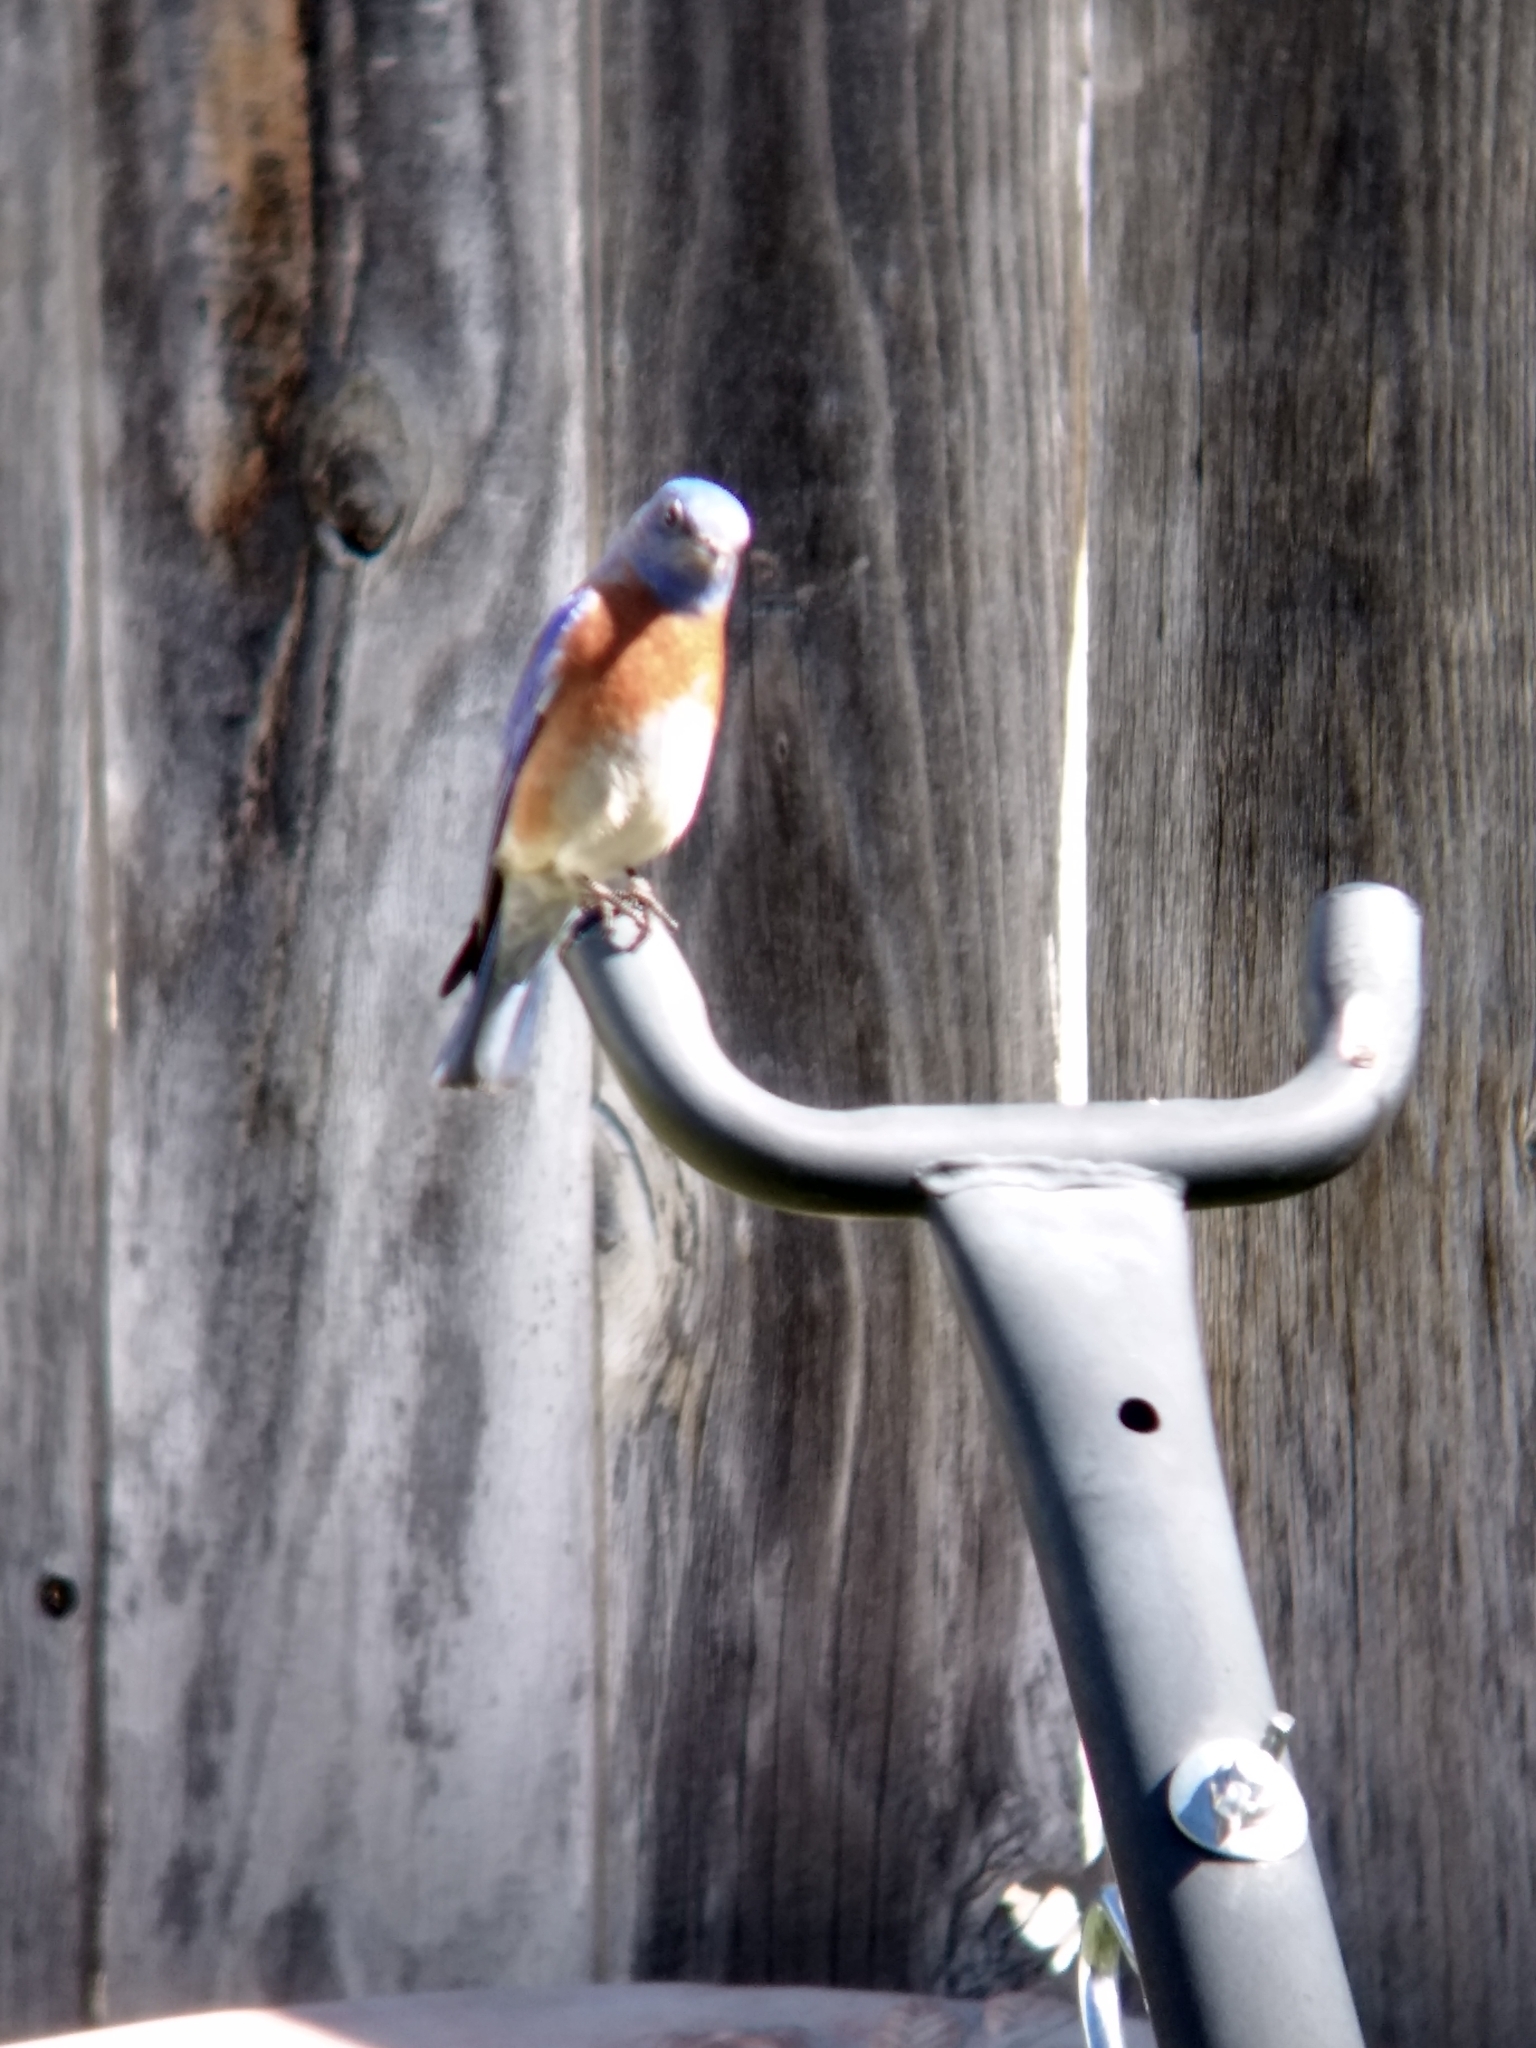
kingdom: Animalia
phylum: Chordata
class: Aves
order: Passeriformes
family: Turdidae
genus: Sialia
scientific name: Sialia mexicana
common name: Western bluebird
